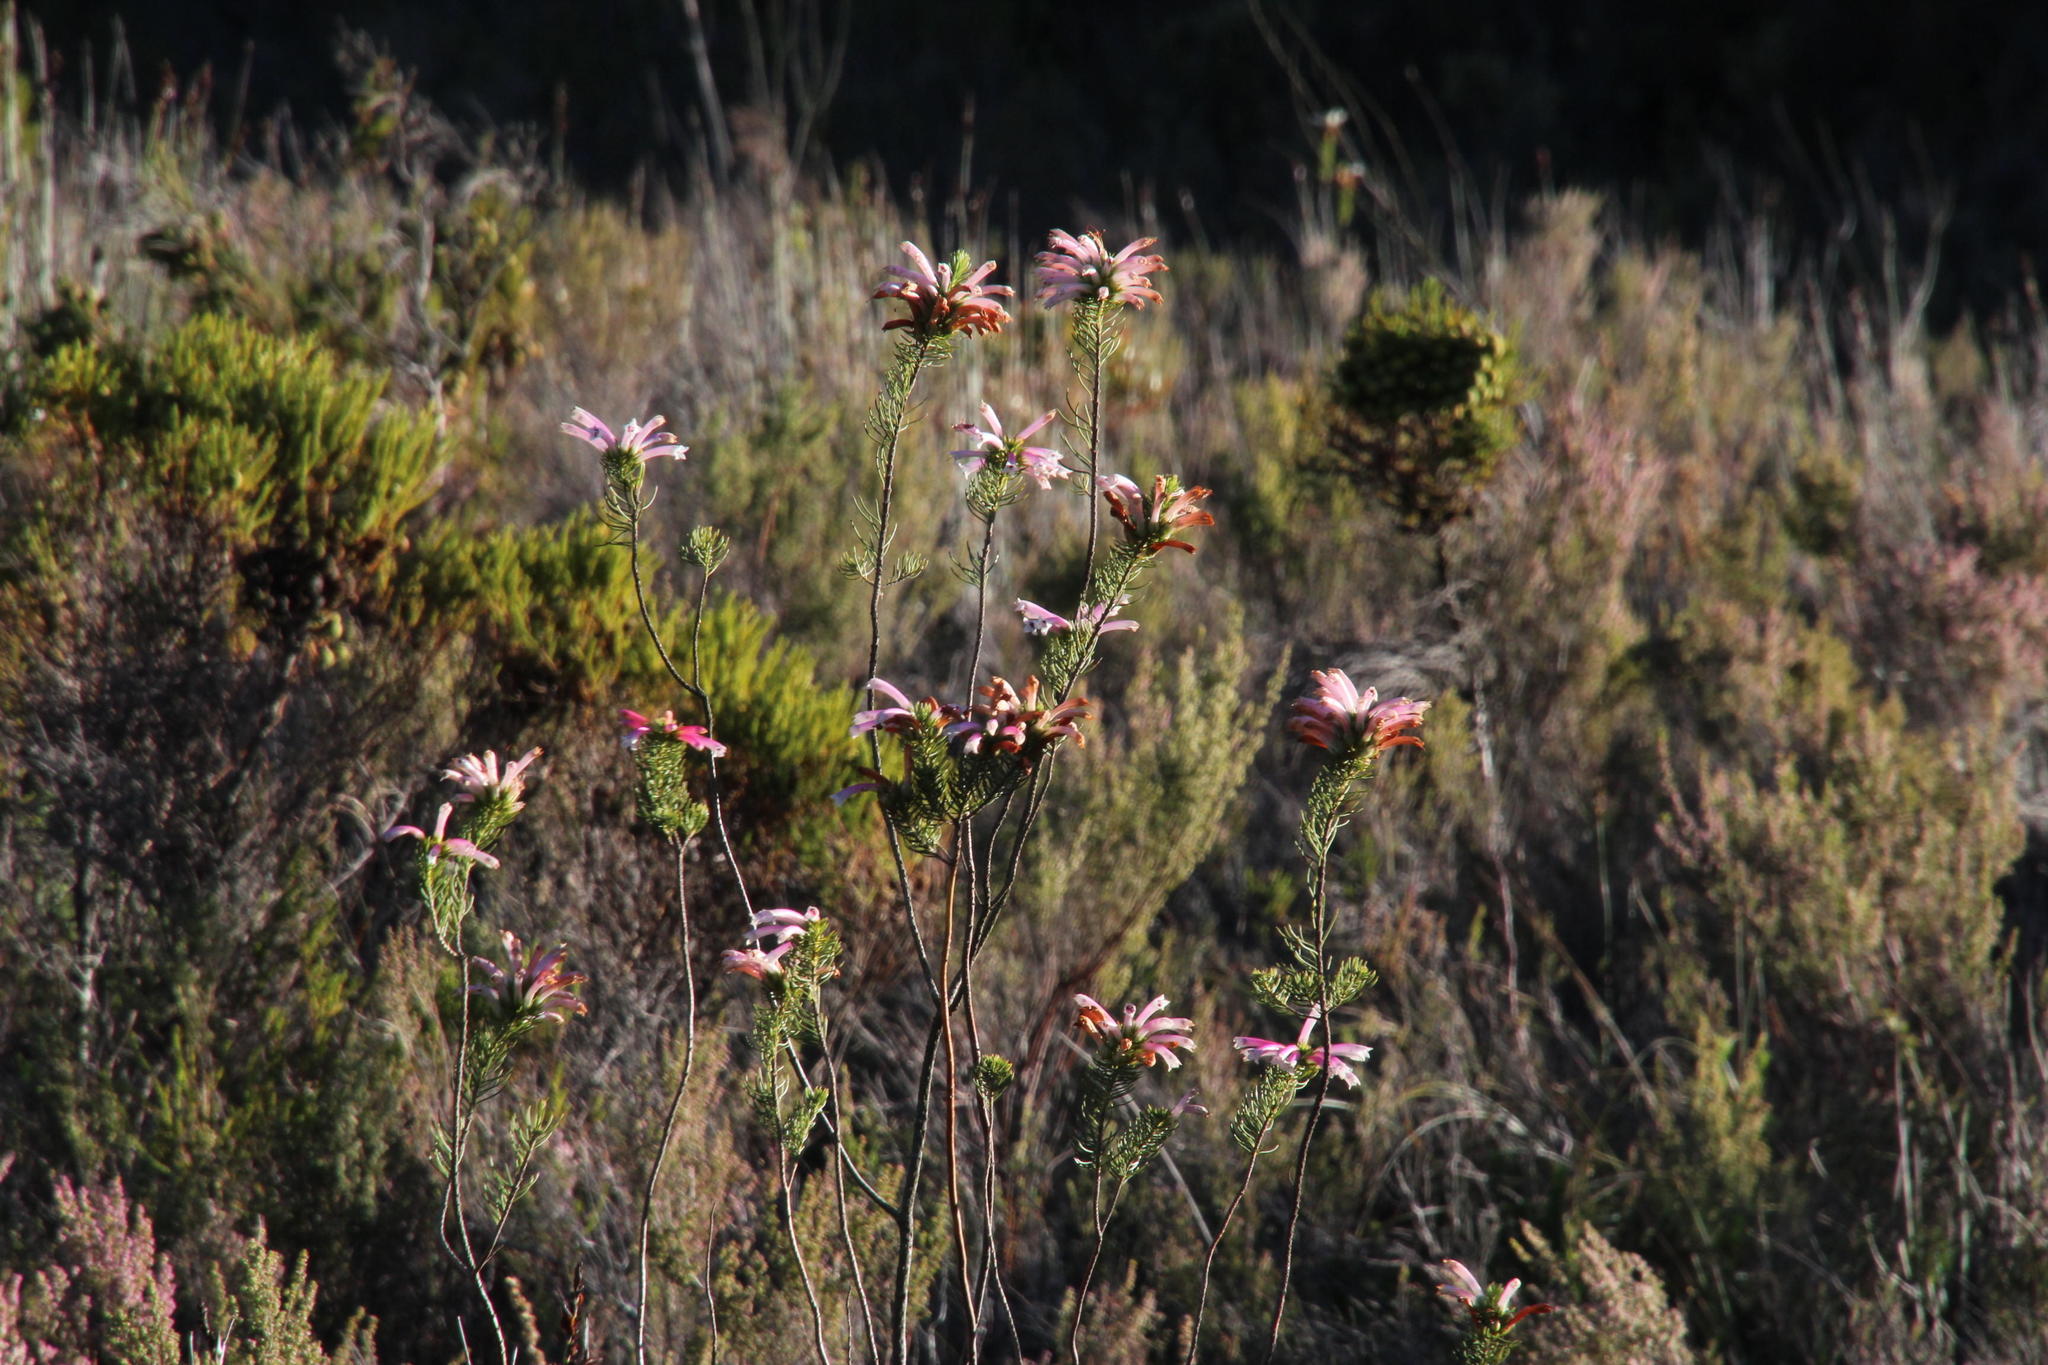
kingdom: Plantae
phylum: Tracheophyta
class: Magnoliopsida
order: Ericales
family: Ericaceae
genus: Erica
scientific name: Erica viscaria
